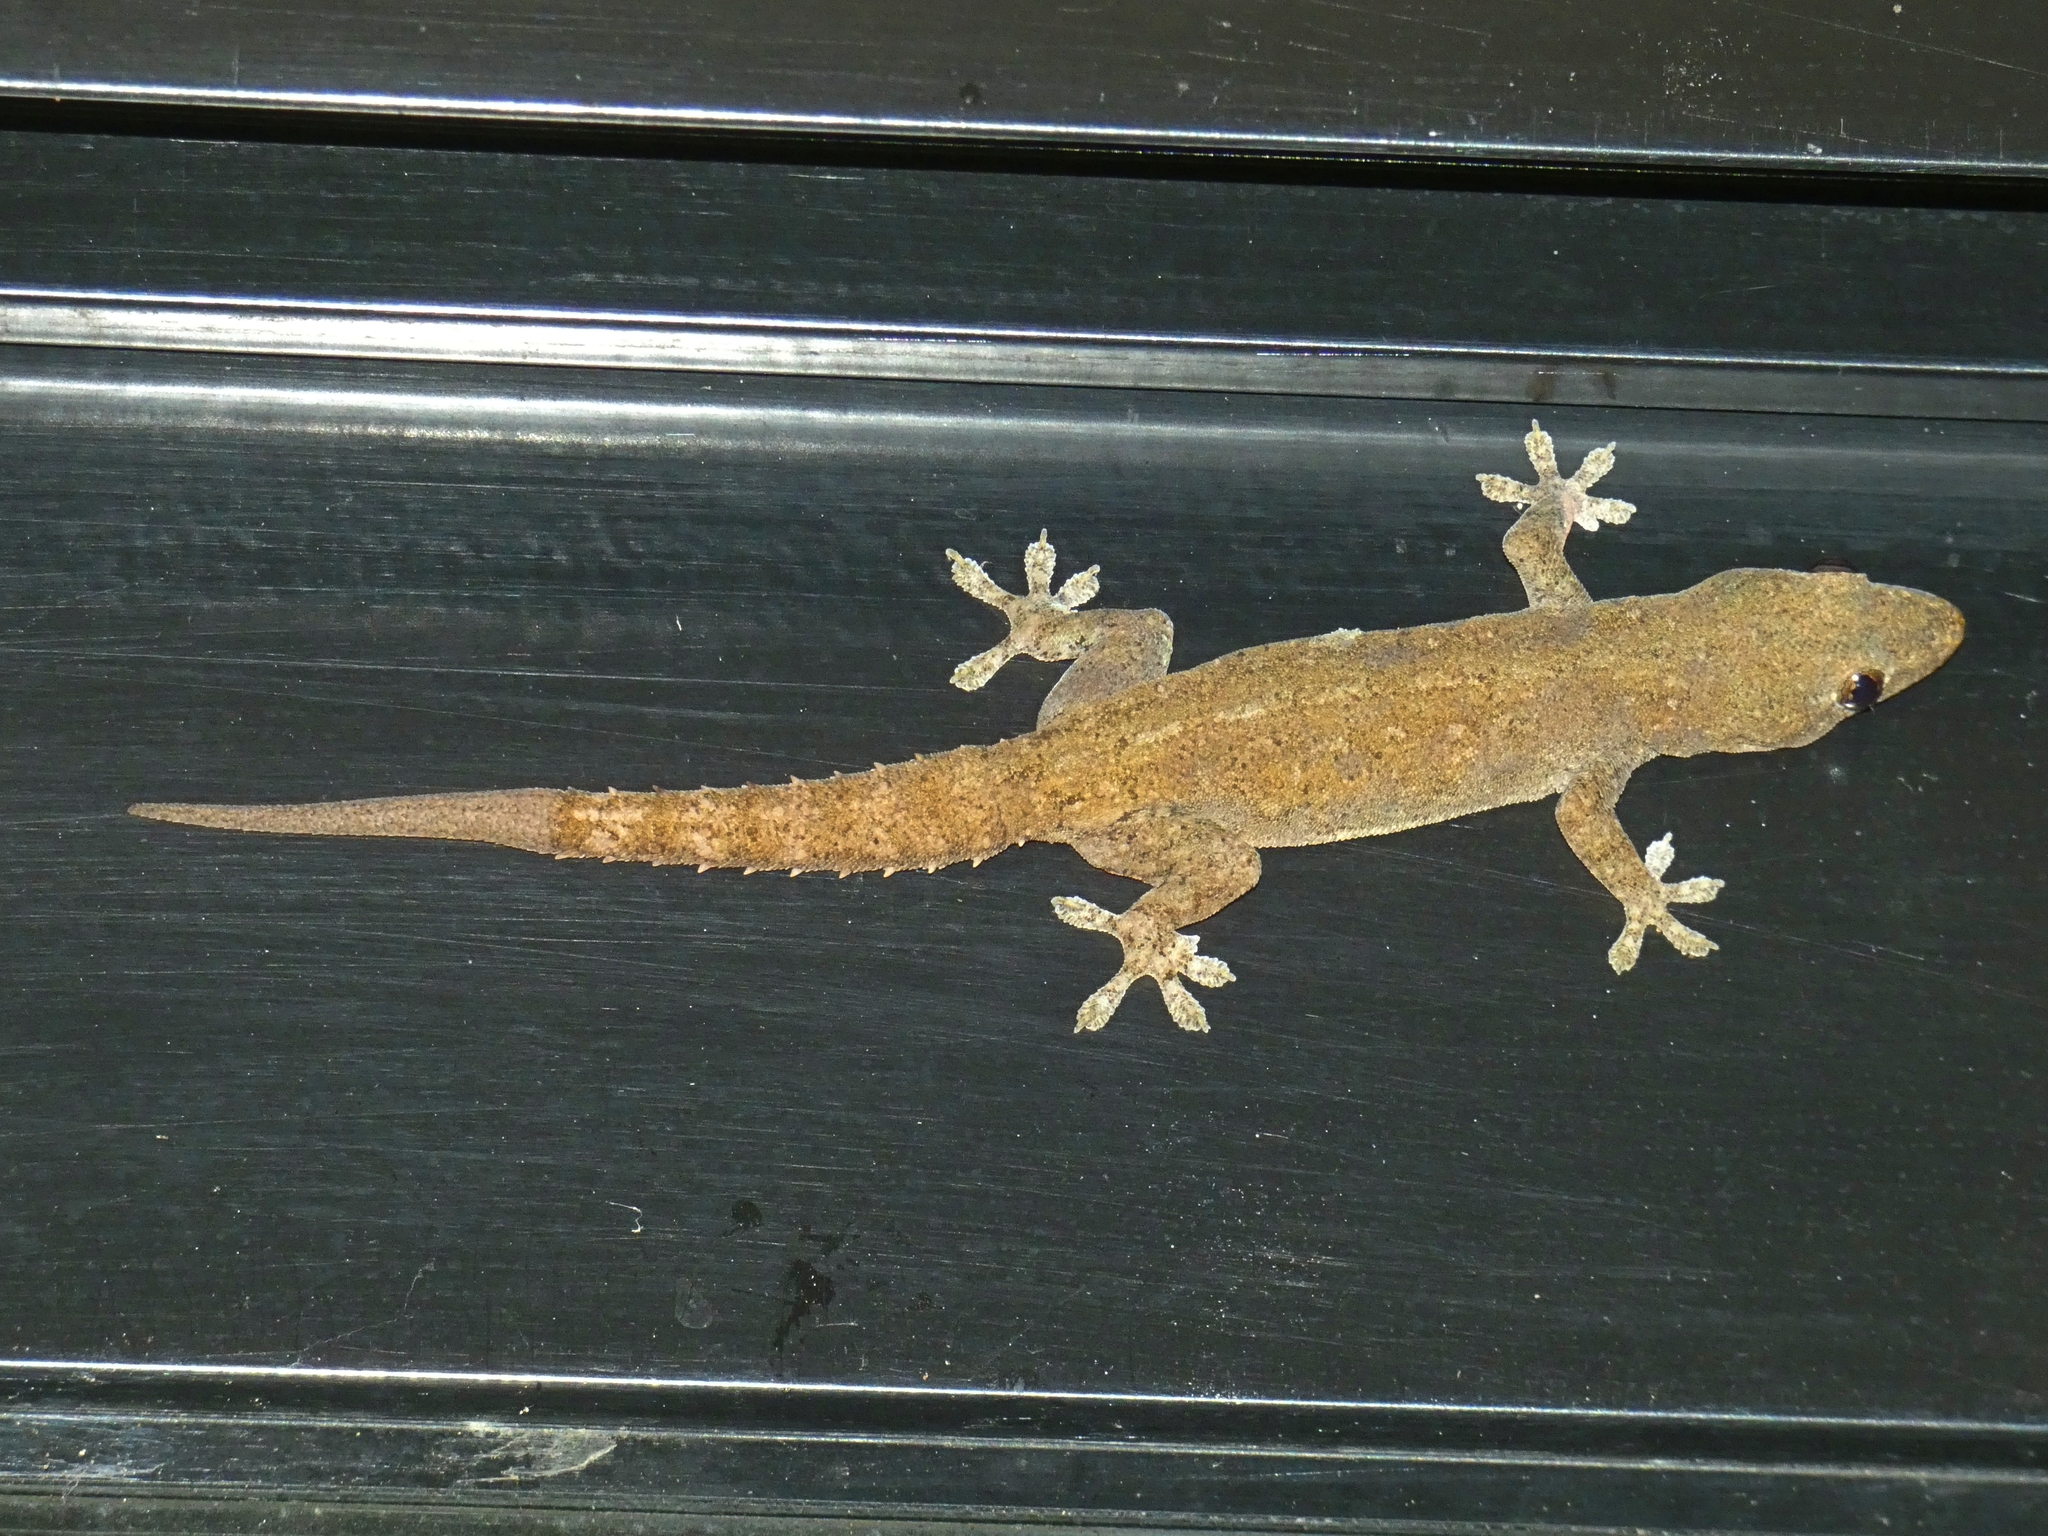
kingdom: Animalia
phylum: Chordata
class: Squamata
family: Gekkonidae
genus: Hemidactylus
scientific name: Hemidactylus frenatus
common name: Common house gecko
